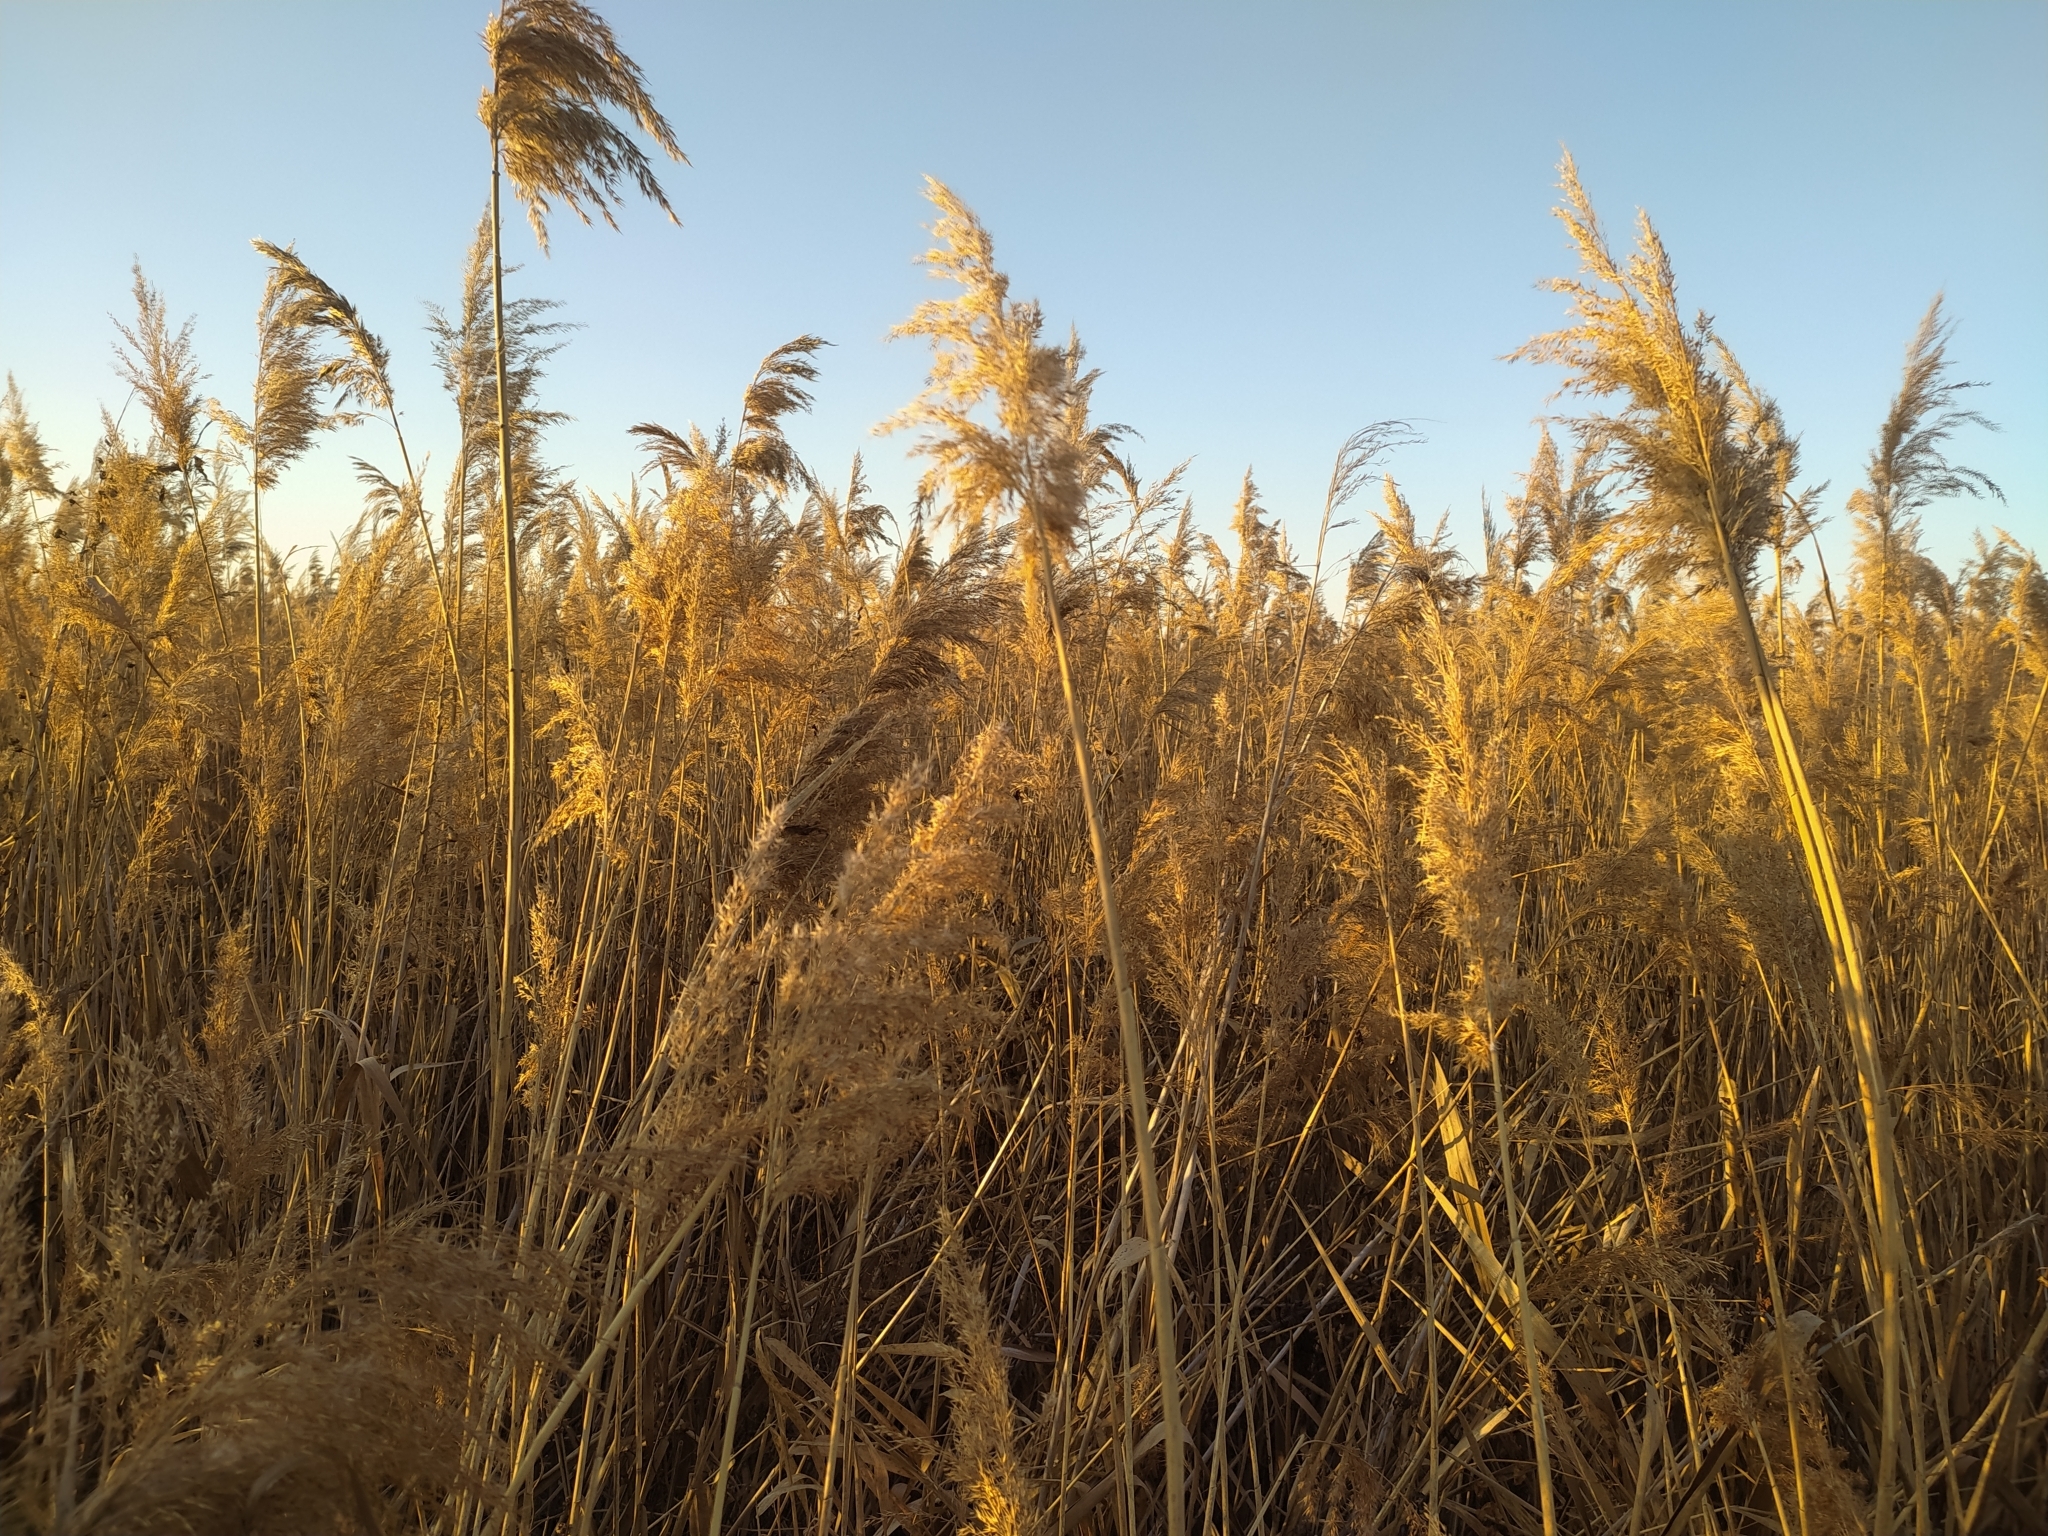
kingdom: Plantae
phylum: Tracheophyta
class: Liliopsida
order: Poales
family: Poaceae
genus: Phragmites
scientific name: Phragmites australis
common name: Common reed
